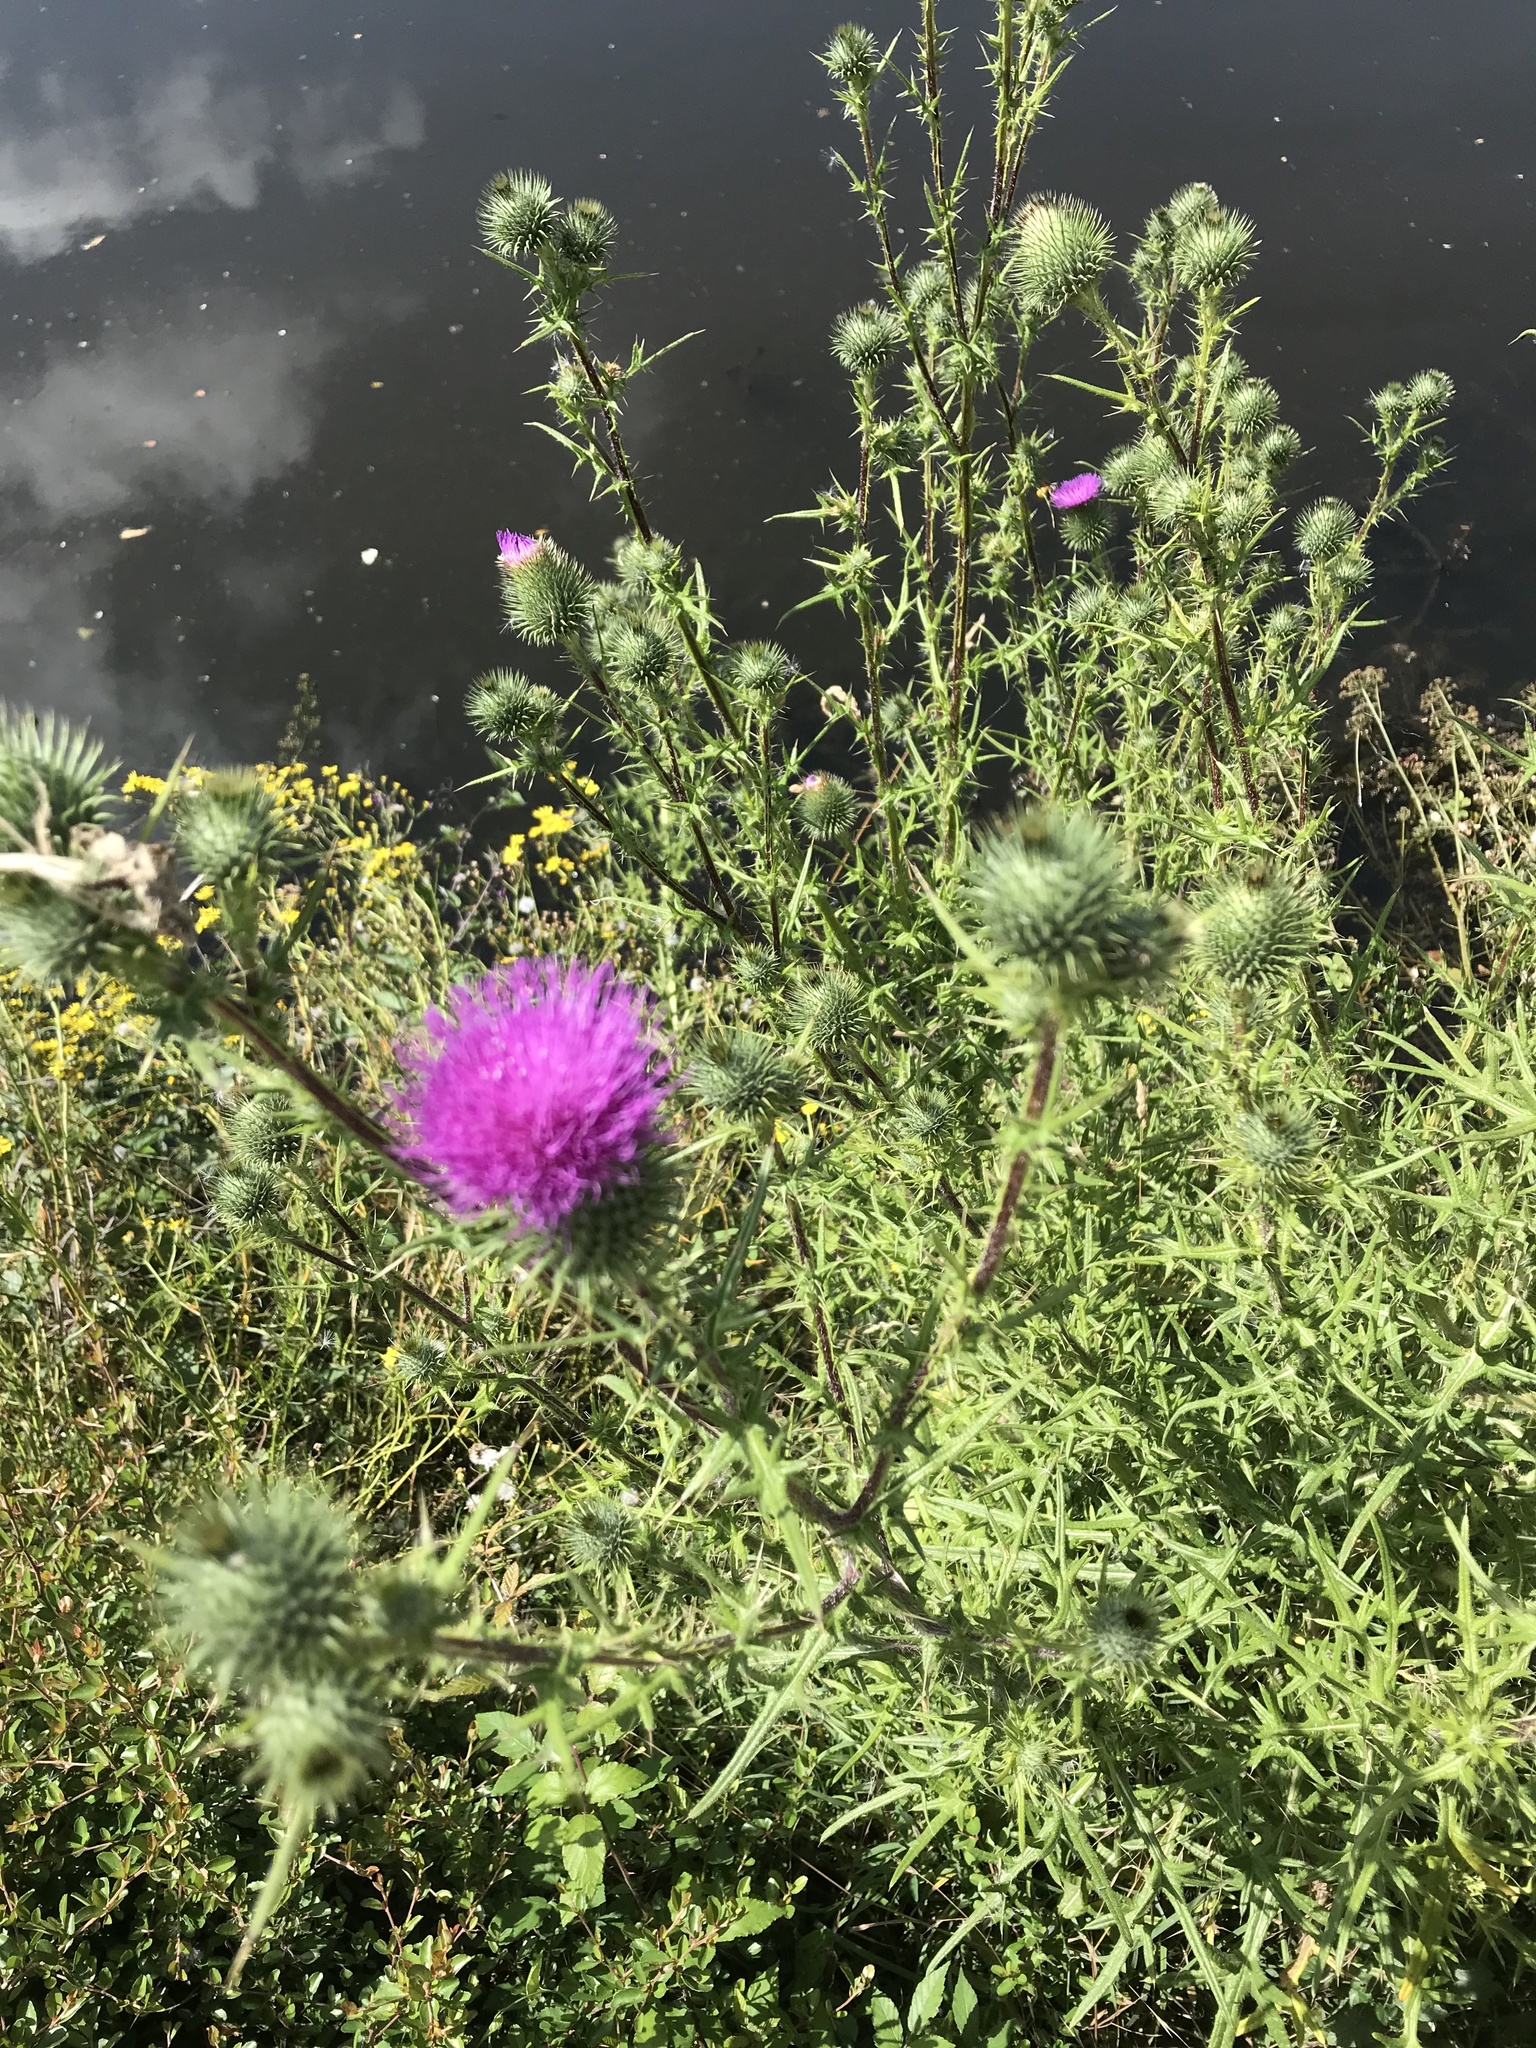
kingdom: Plantae
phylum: Tracheophyta
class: Magnoliopsida
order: Asterales
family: Asteraceae
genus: Cirsium
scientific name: Cirsium vulgare
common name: Bull thistle
